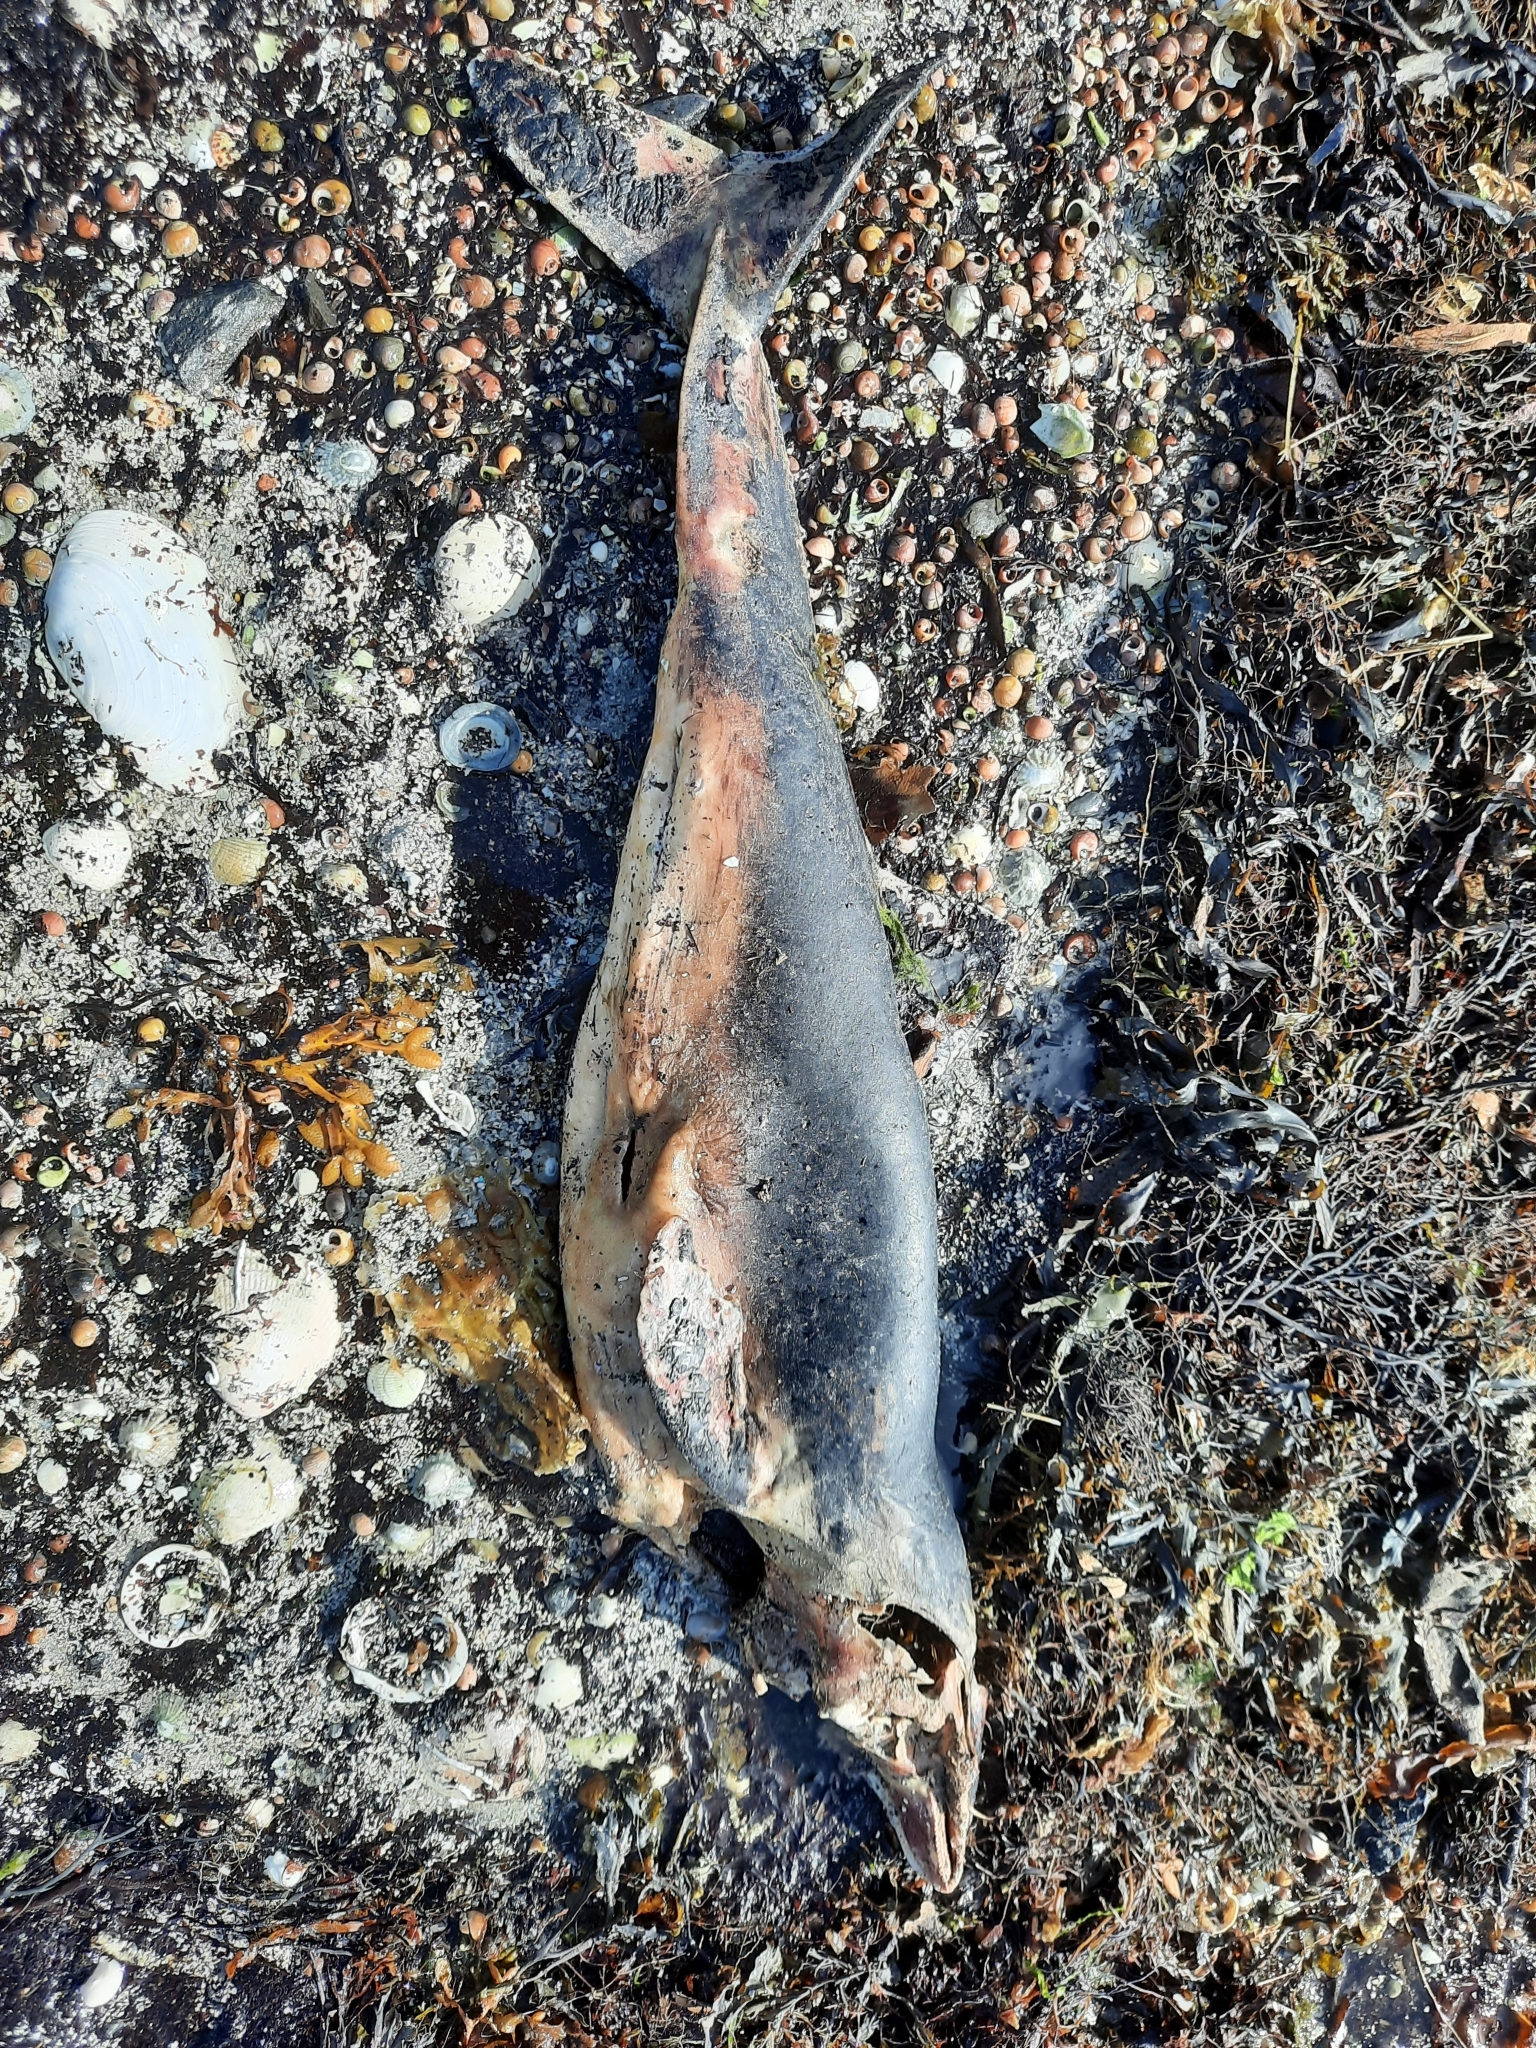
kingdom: Animalia
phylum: Chordata
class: Mammalia
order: Cetacea
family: Phocoenidae
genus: Phocoena
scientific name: Phocoena phocoena
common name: Harbor porpoise
